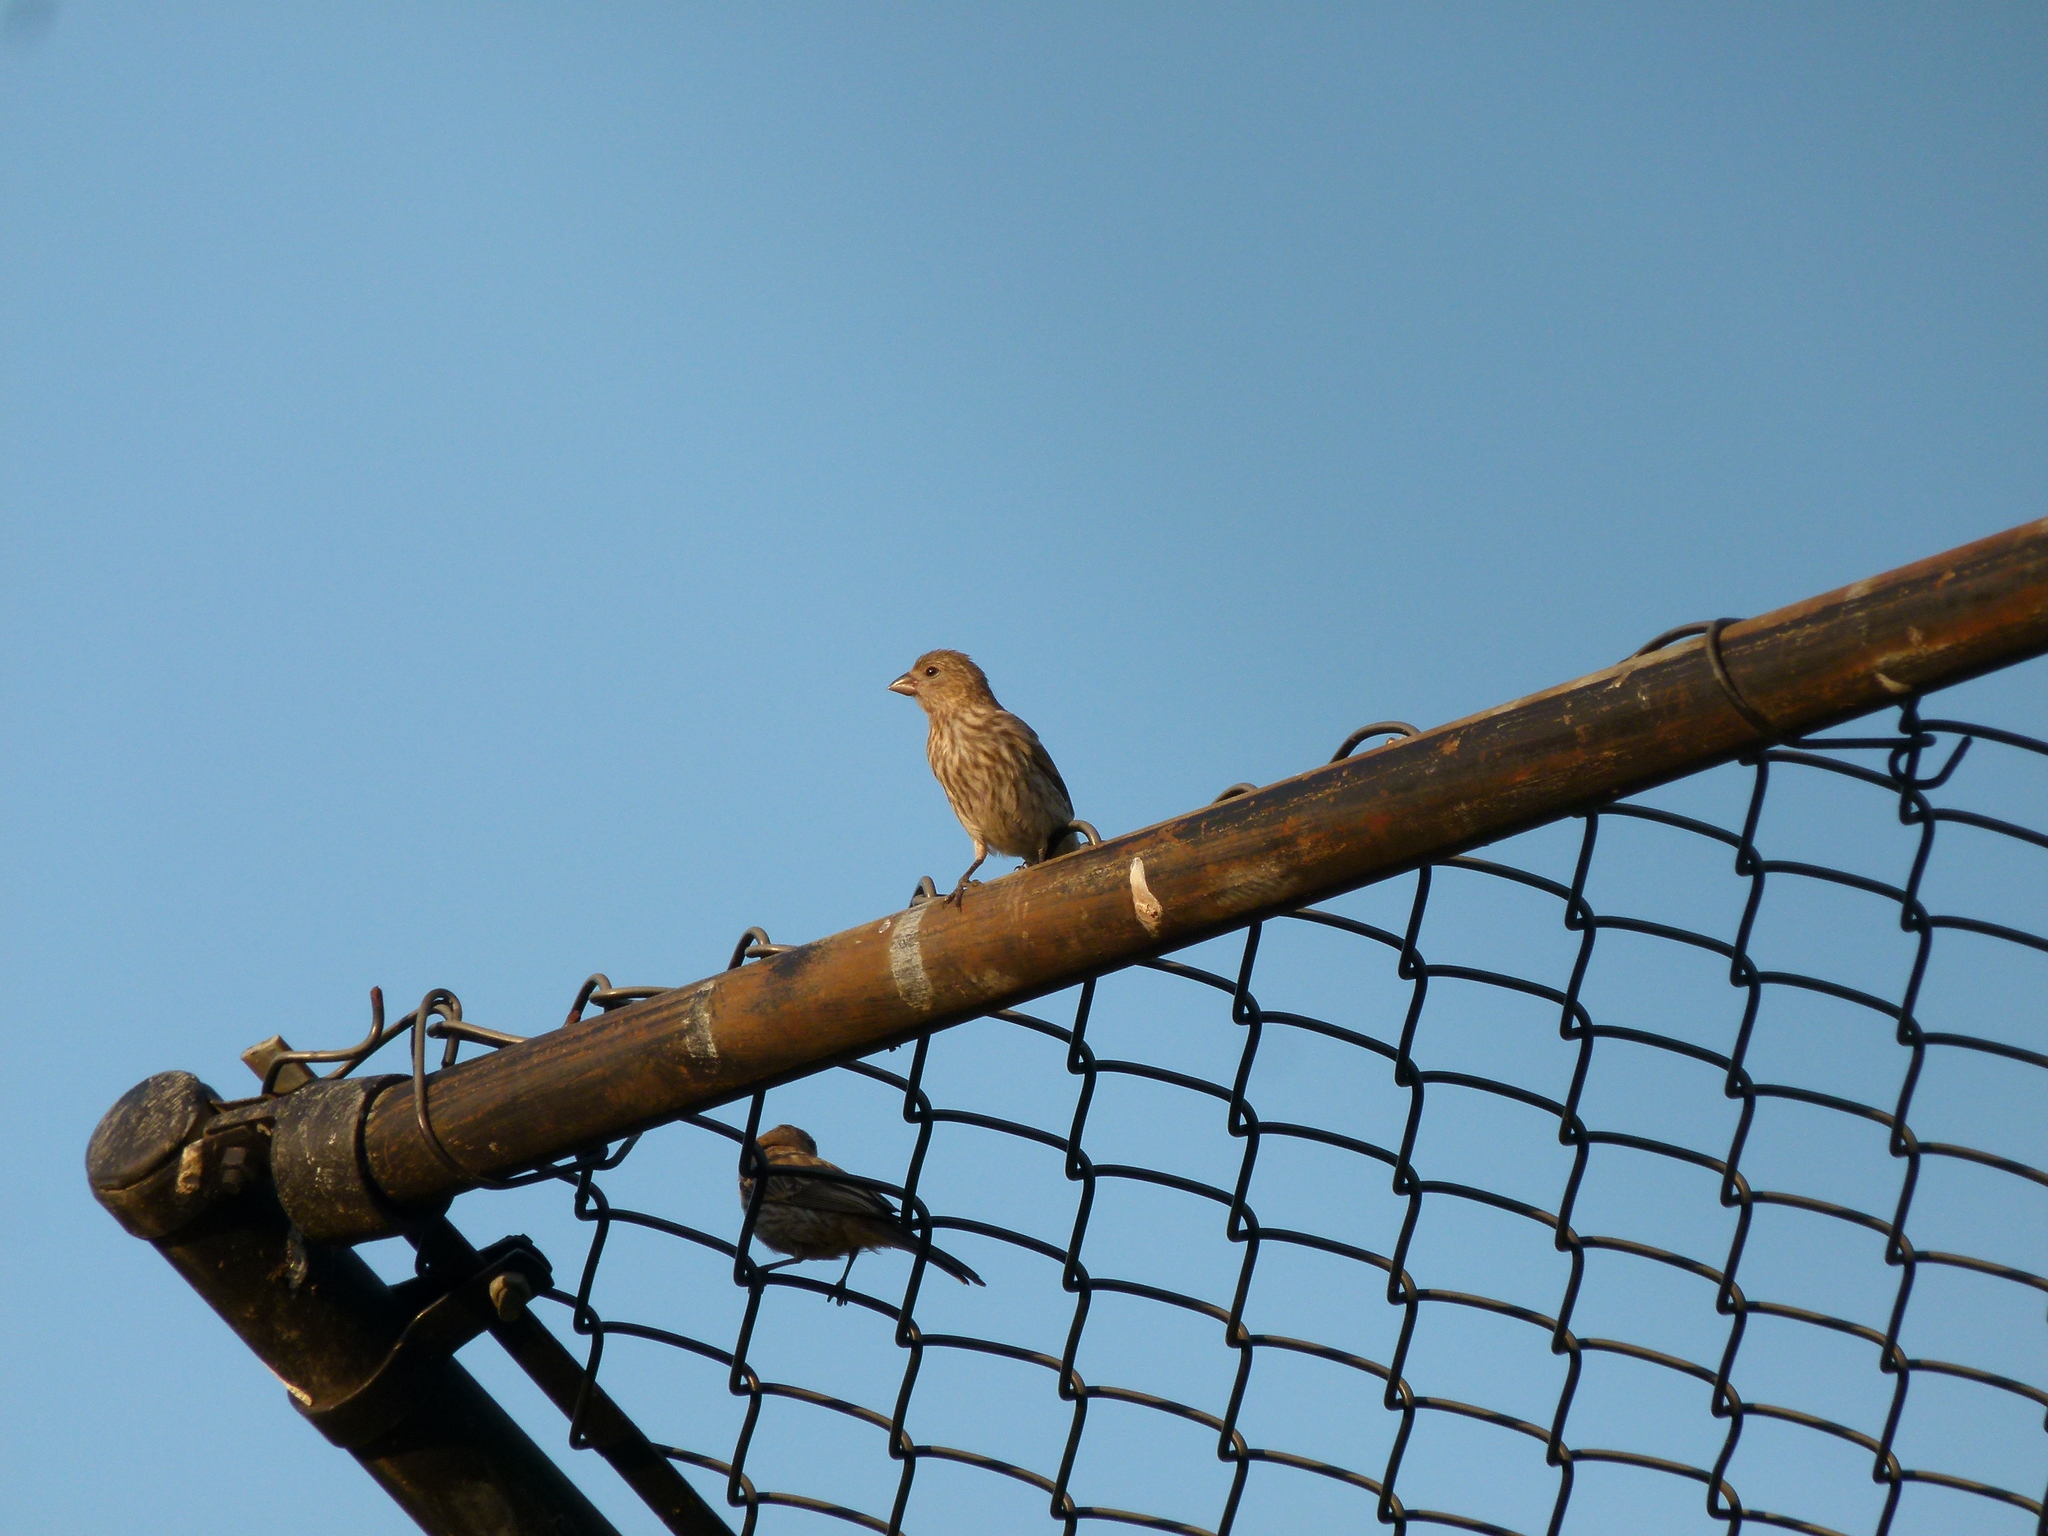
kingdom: Animalia
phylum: Chordata
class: Aves
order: Passeriformes
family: Fringillidae
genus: Haemorhous
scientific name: Haemorhous mexicanus
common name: House finch
